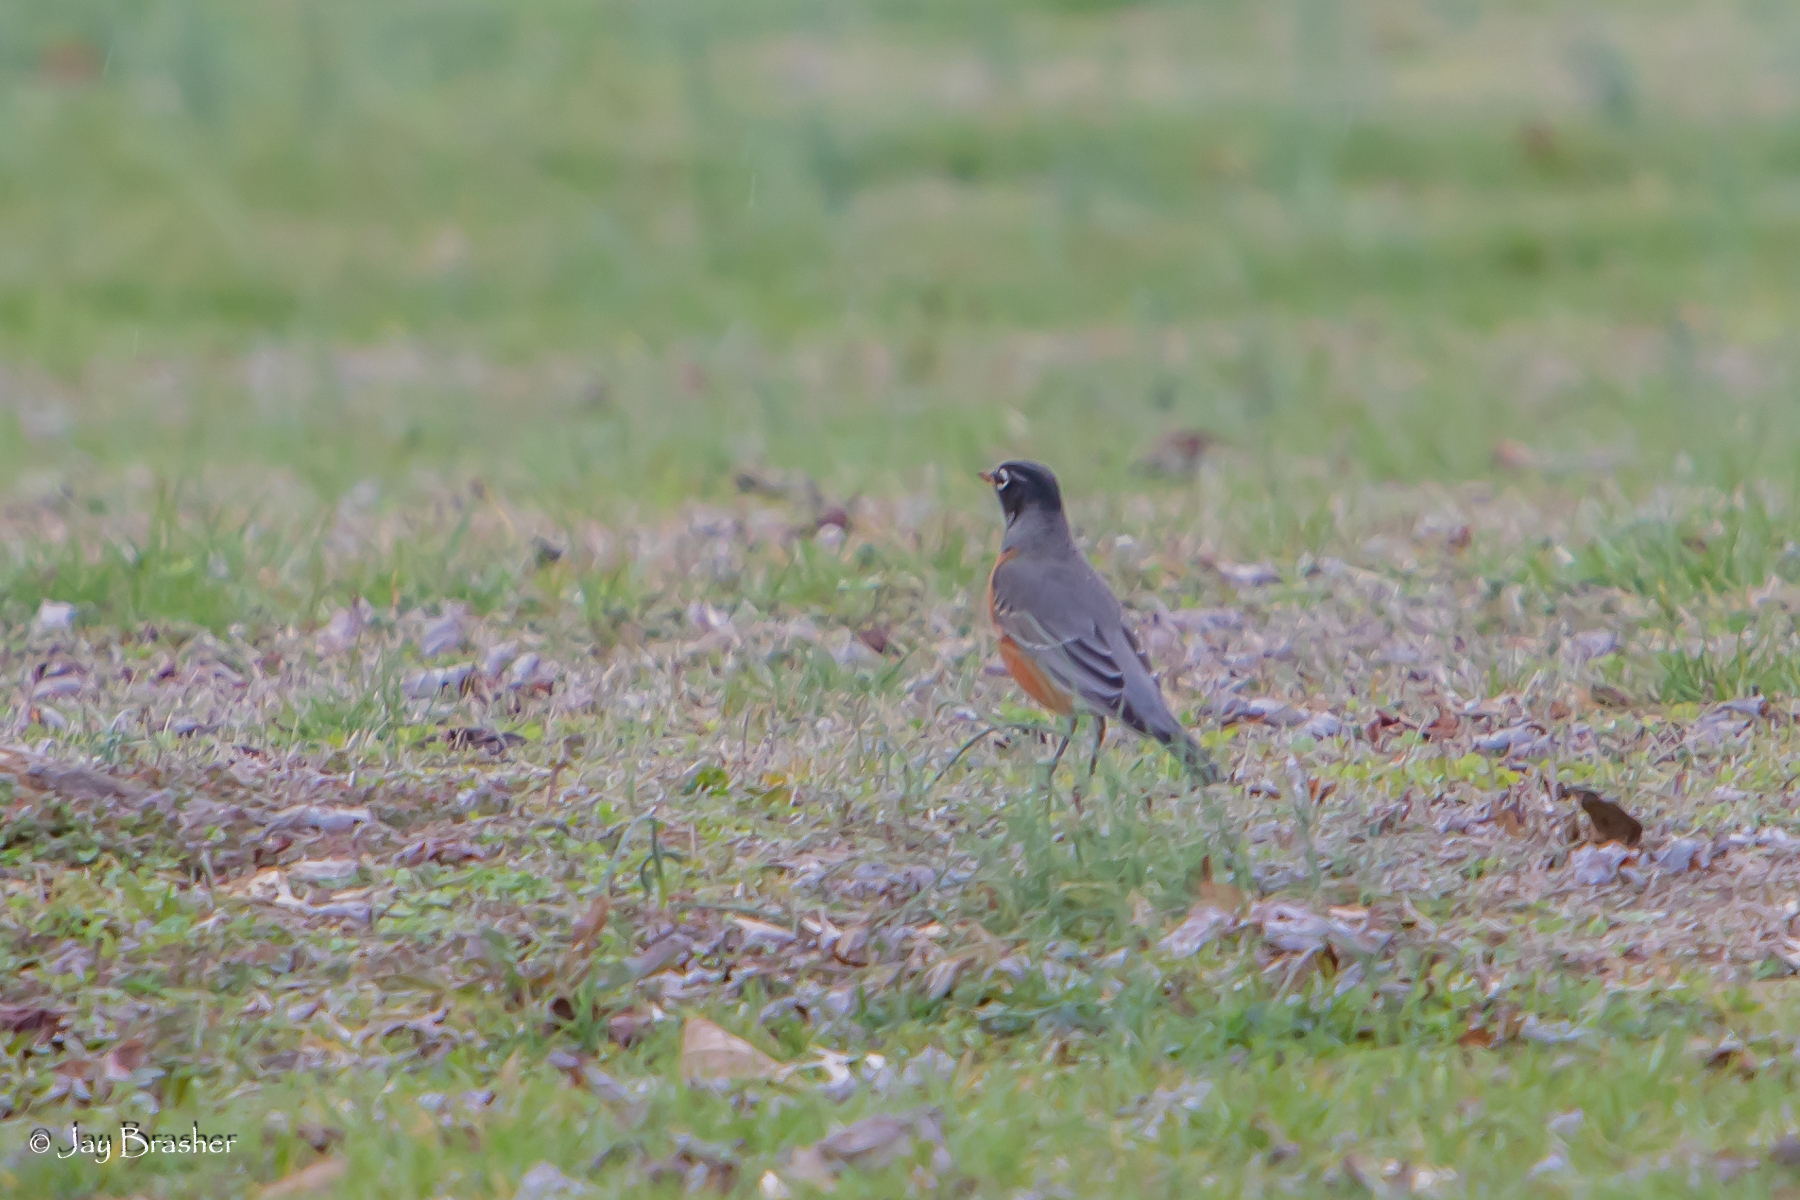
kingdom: Animalia
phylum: Chordata
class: Aves
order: Passeriformes
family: Turdidae
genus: Turdus
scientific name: Turdus migratorius
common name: American robin
